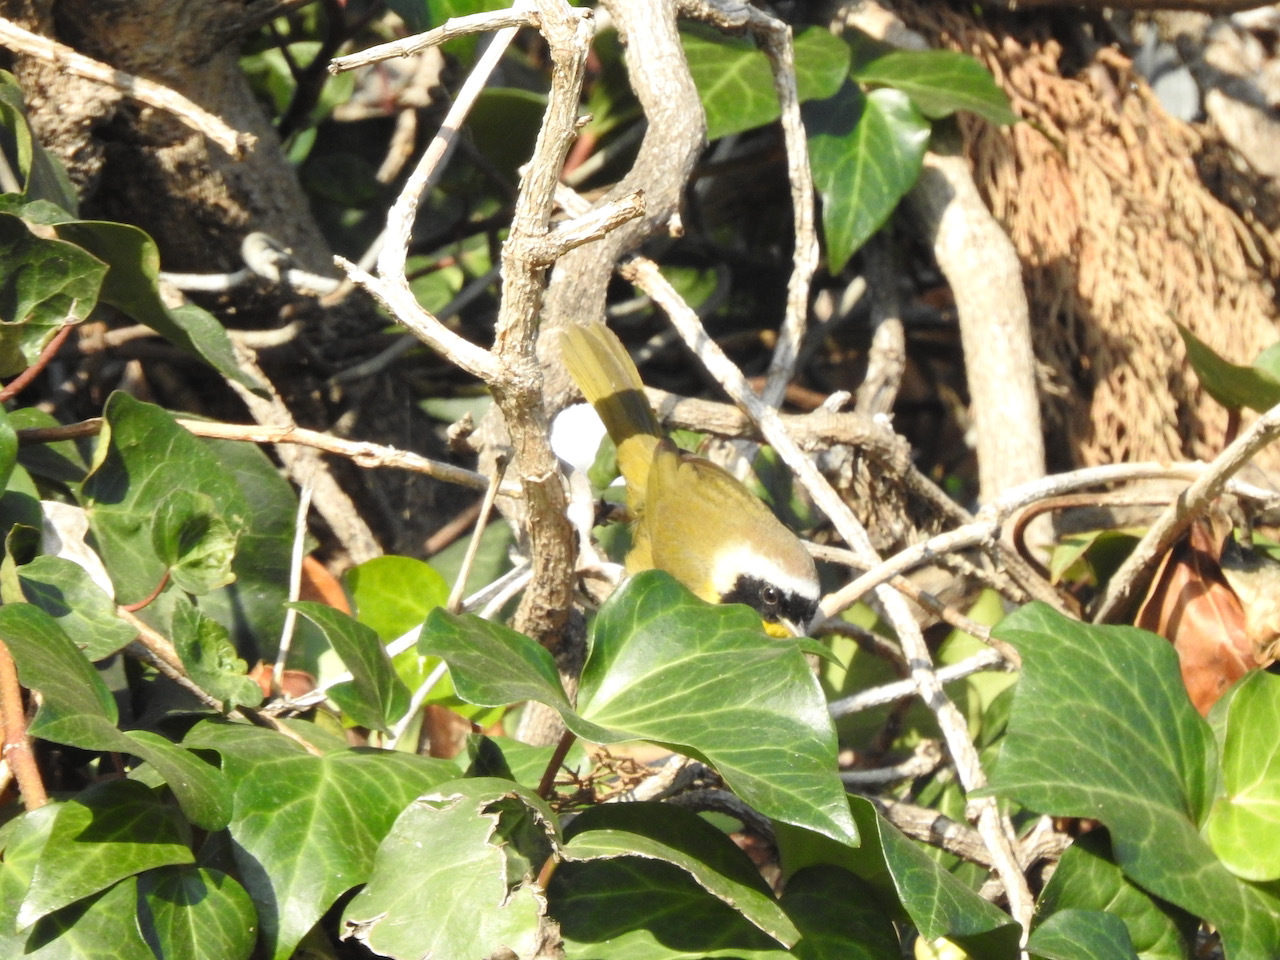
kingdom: Animalia
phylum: Chordata
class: Aves
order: Passeriformes
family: Parulidae
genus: Geothlypis
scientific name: Geothlypis trichas
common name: Common yellowthroat
